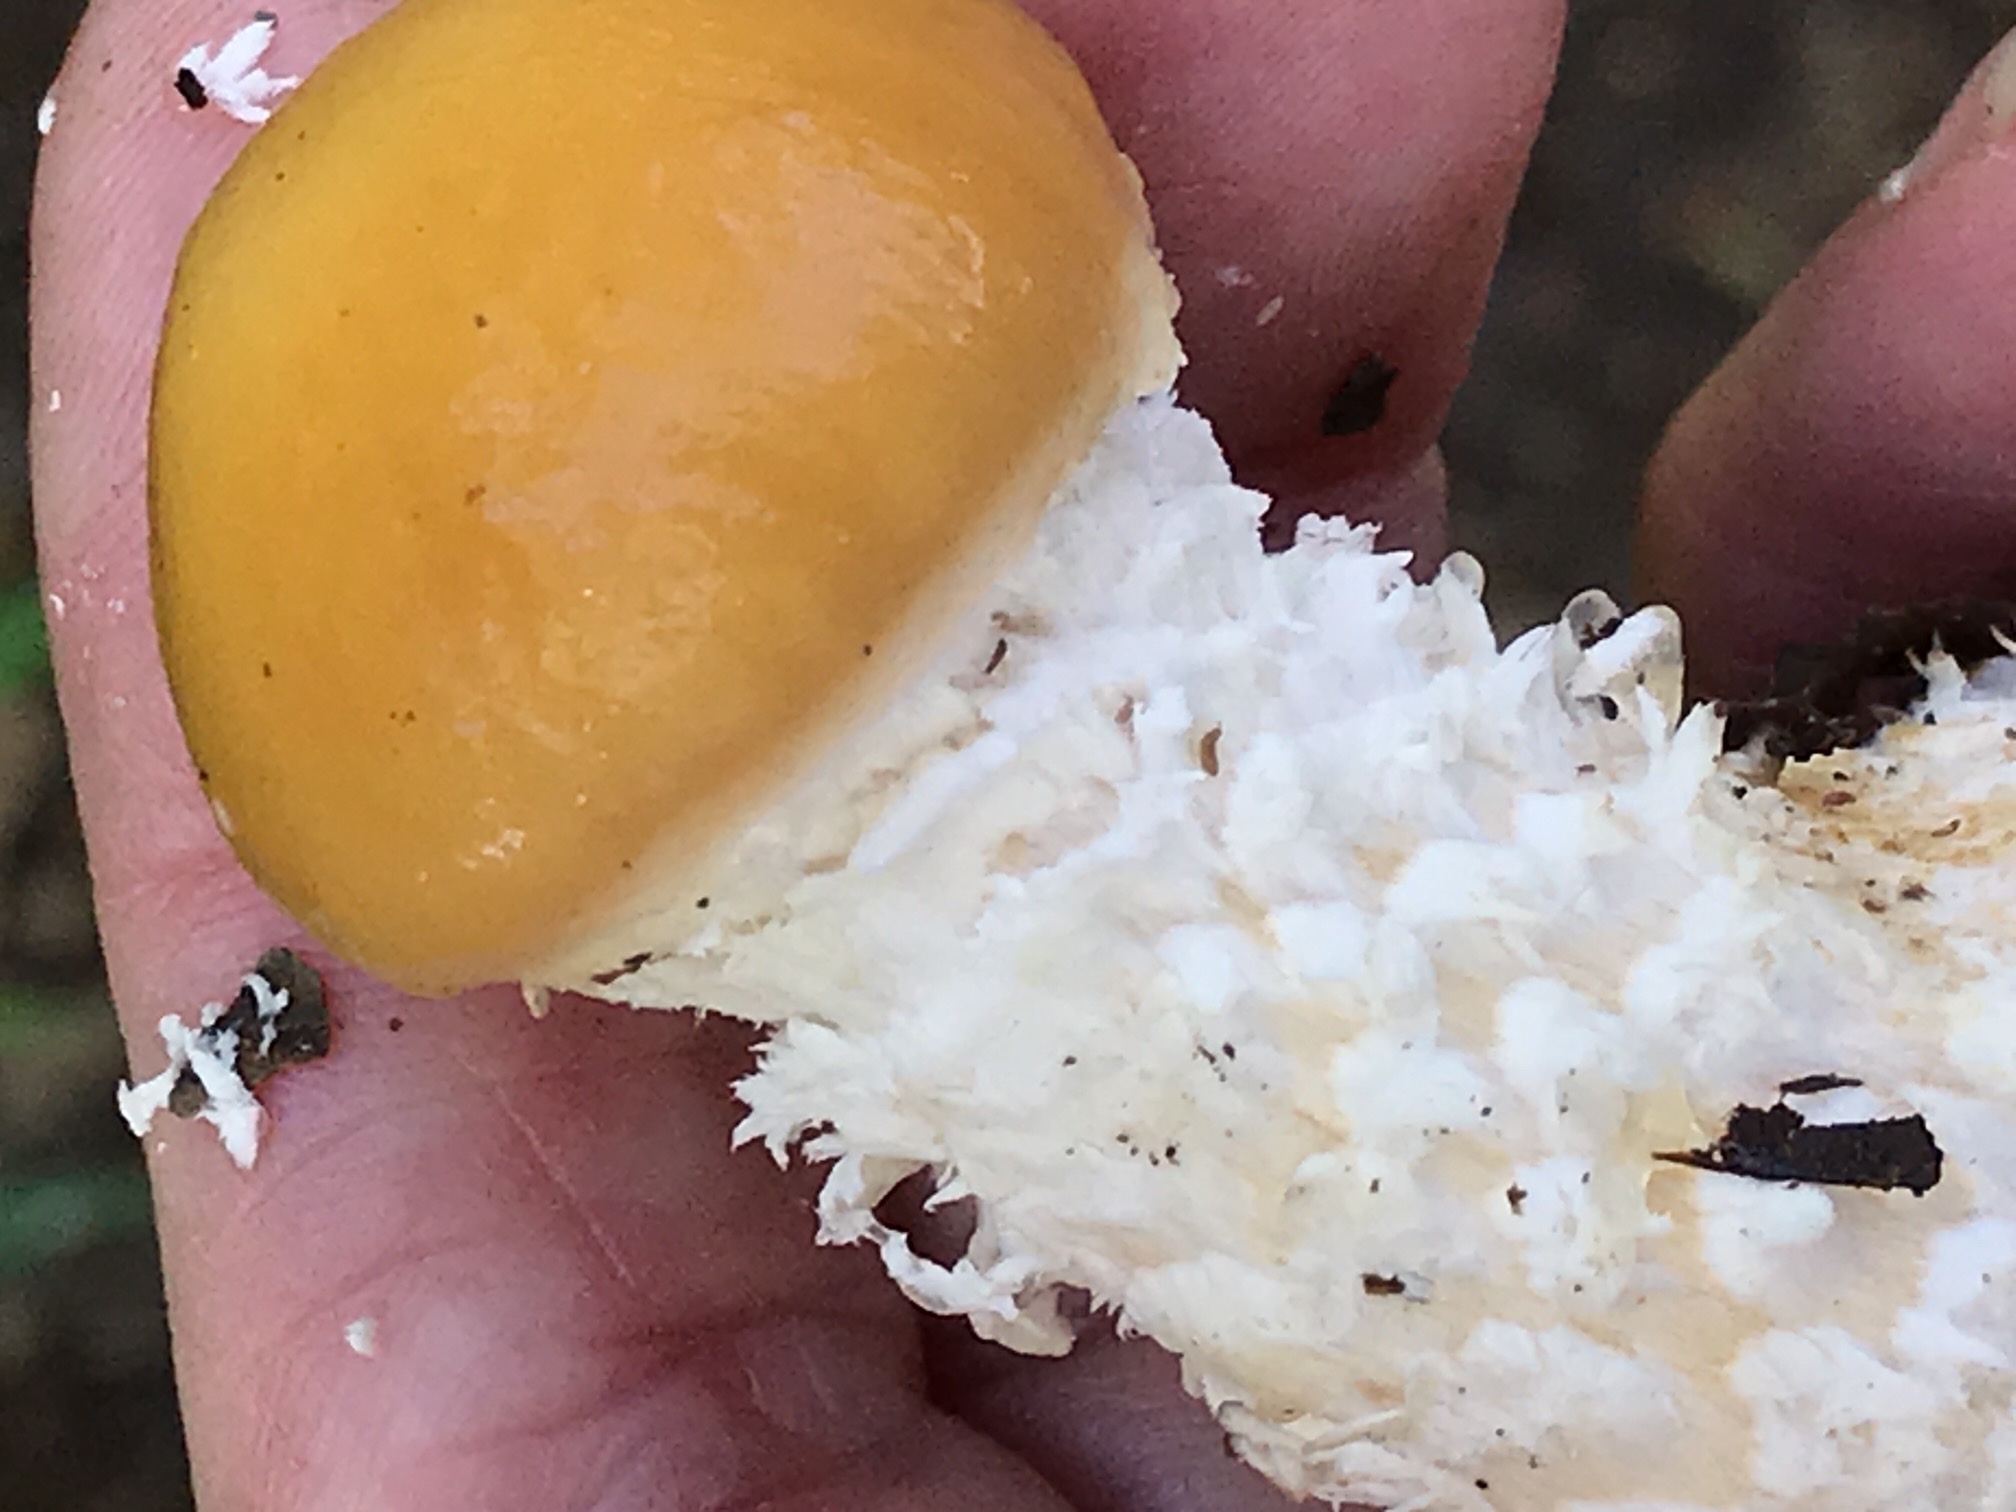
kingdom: Fungi
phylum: Basidiomycota
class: Agaricomycetes
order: Agaricales
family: Strophariaceae
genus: Stropharia
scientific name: Stropharia ambigua
